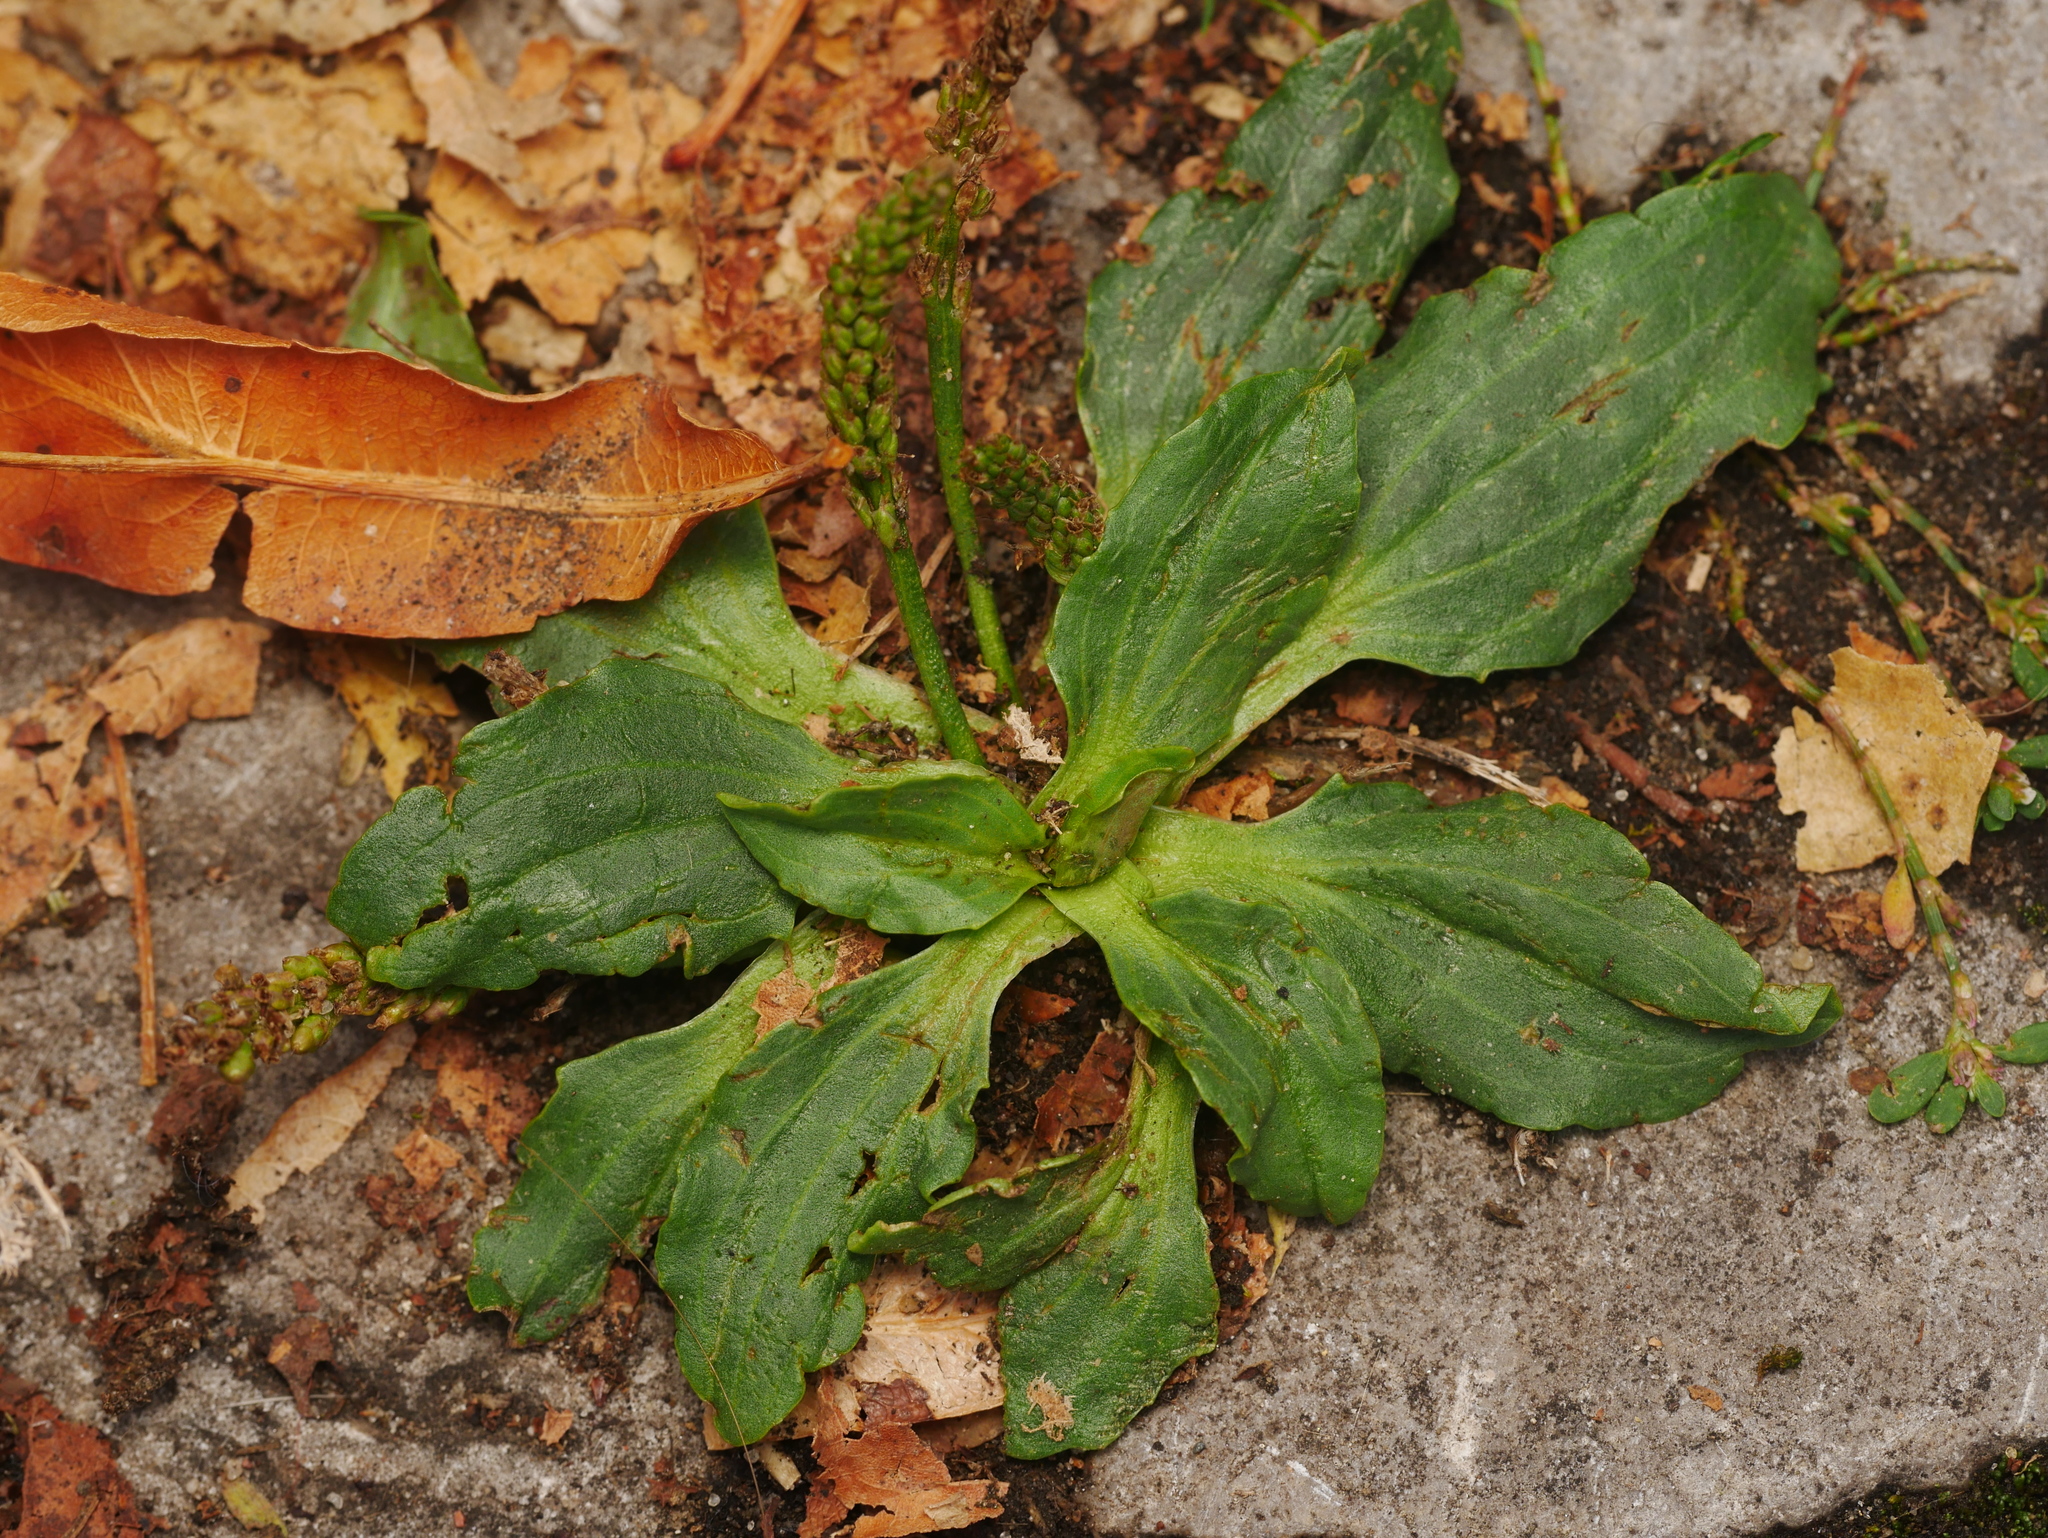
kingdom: Plantae
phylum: Tracheophyta
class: Magnoliopsida
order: Lamiales
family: Plantaginaceae
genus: Plantago
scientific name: Plantago major
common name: Common plantain
